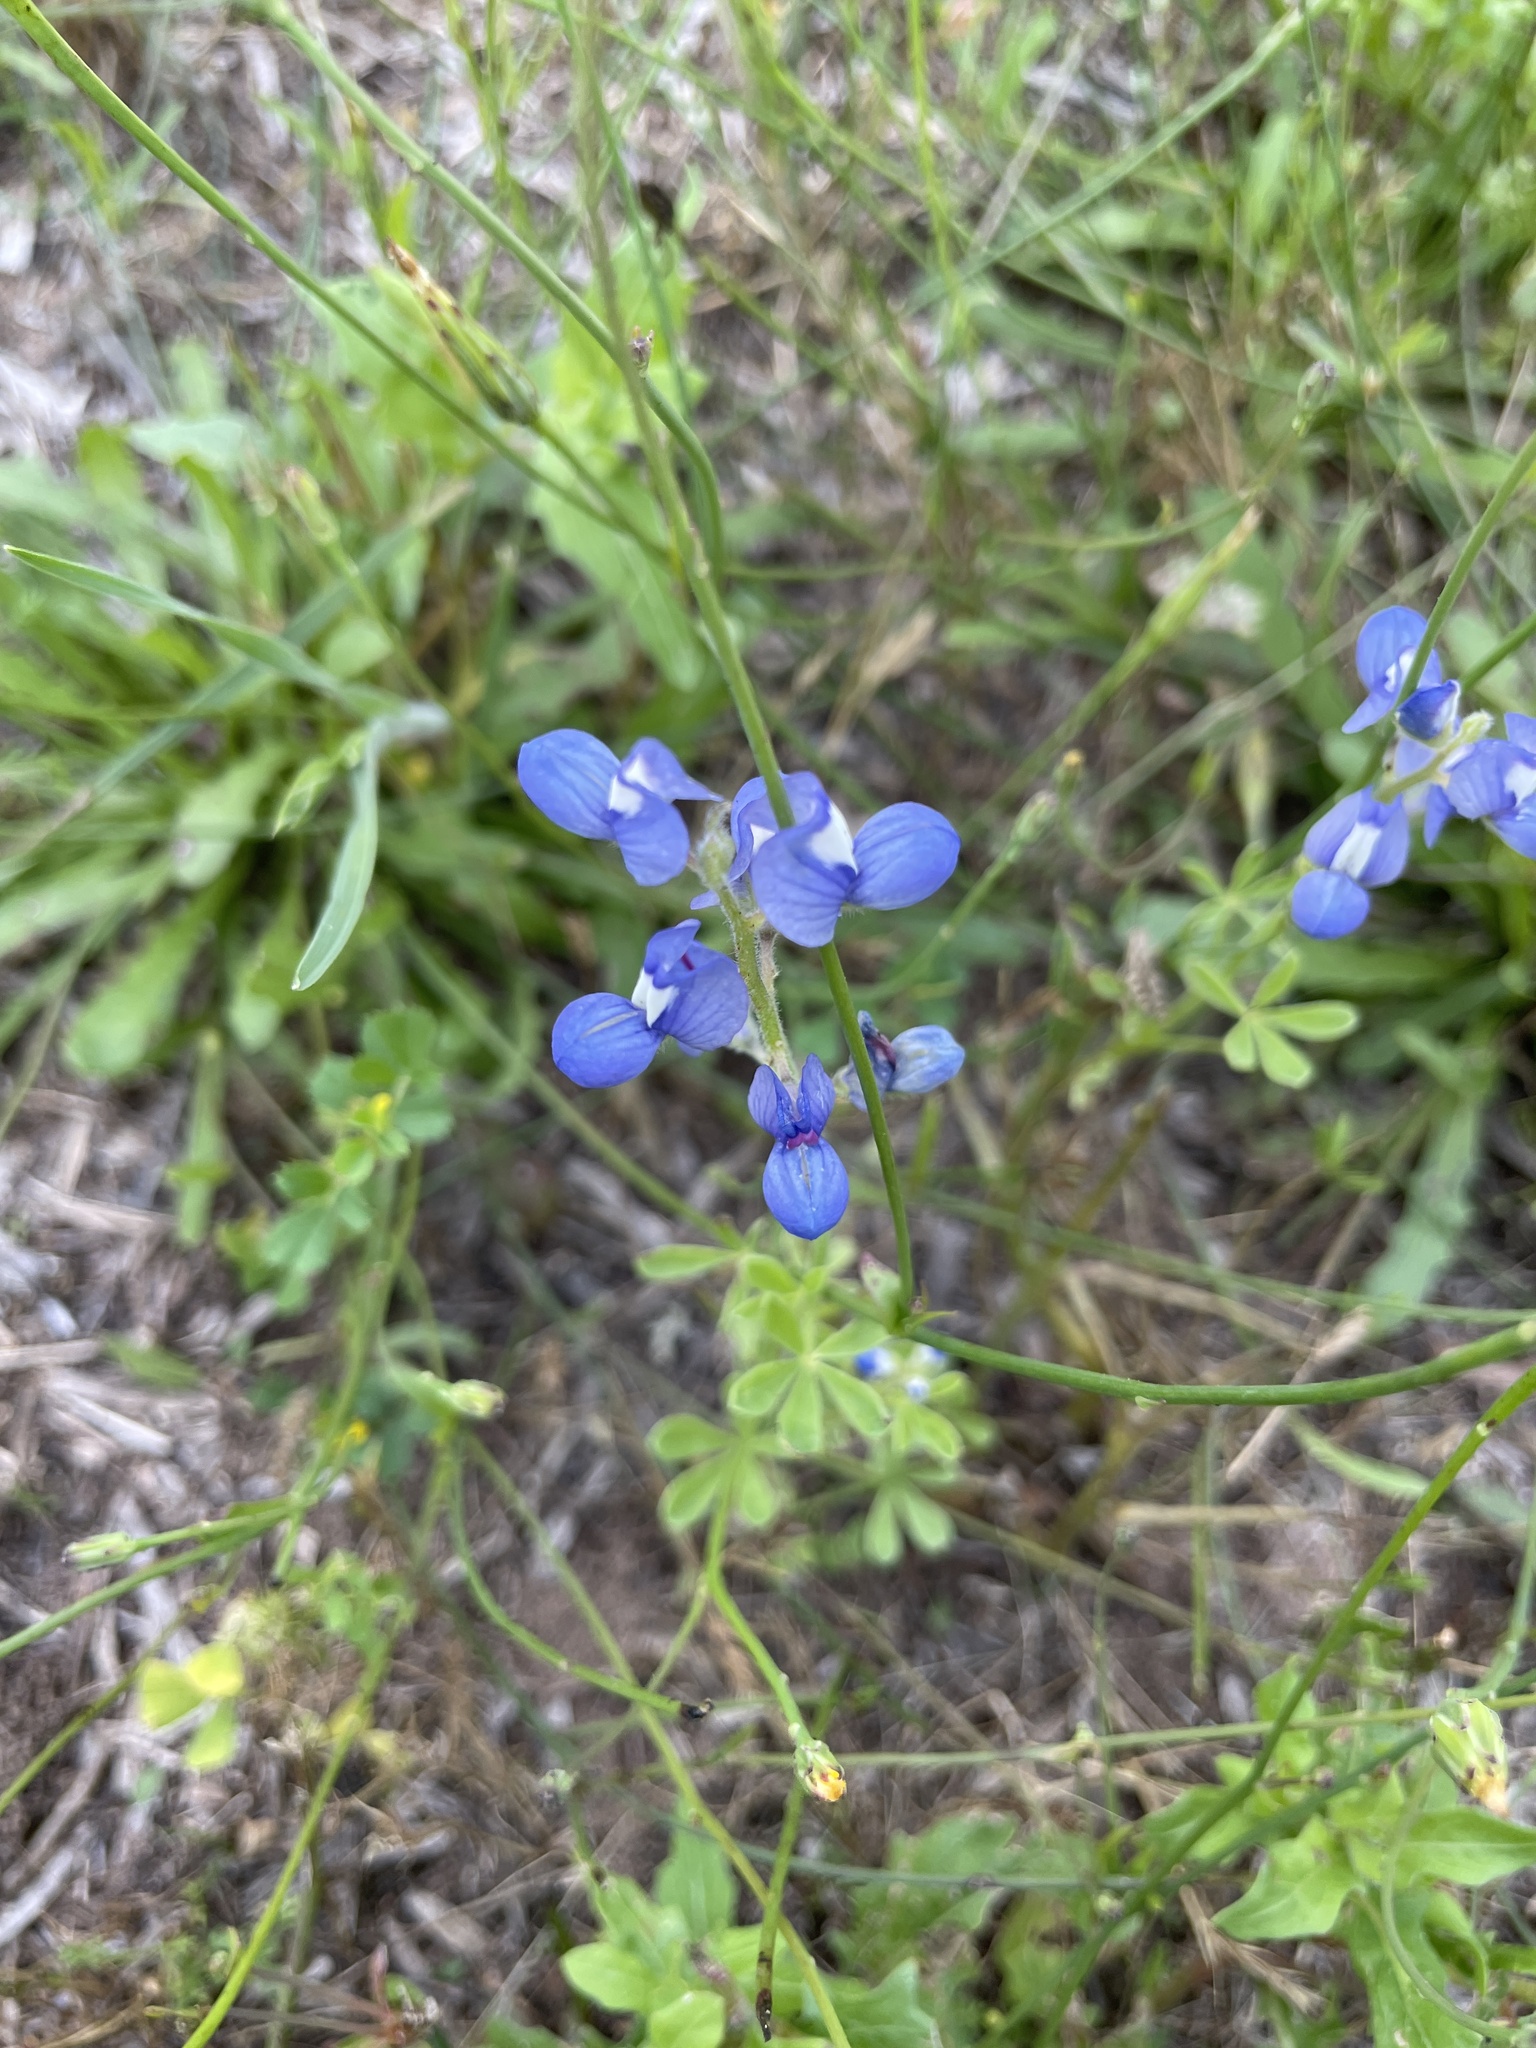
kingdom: Plantae
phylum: Tracheophyta
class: Magnoliopsida
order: Fabales
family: Fabaceae
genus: Lupinus
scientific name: Lupinus subcarnosus
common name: Texas bluebonnet
